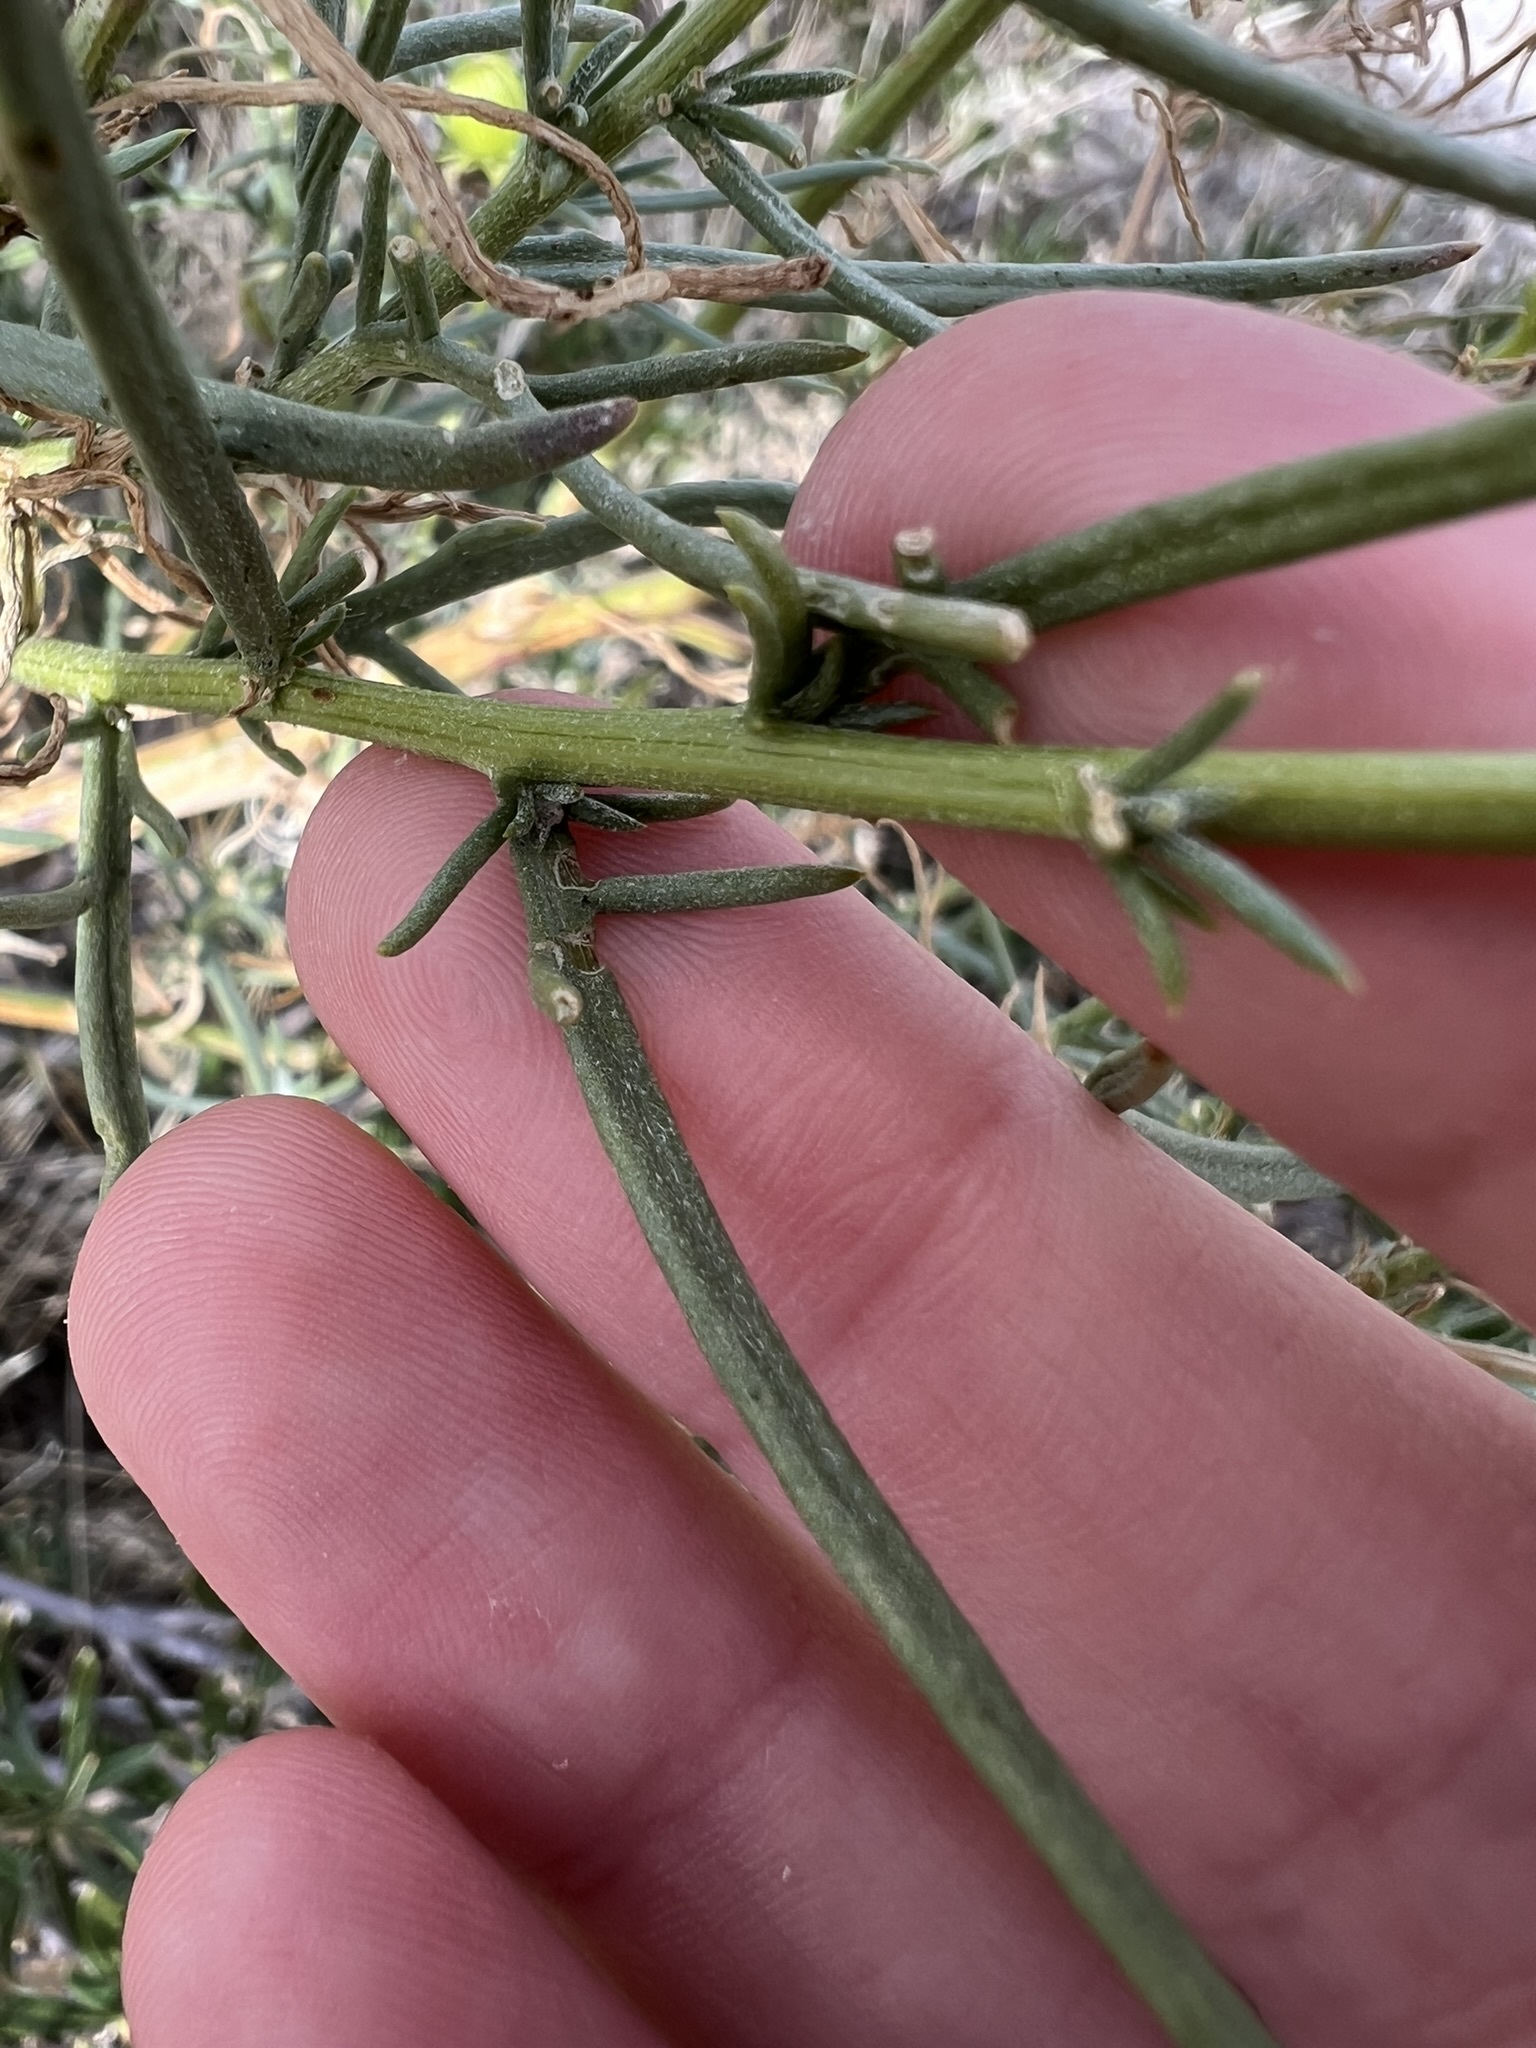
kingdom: Plantae
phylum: Tracheophyta
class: Magnoliopsida
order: Asterales
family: Asteraceae
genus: Senecio
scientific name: Senecio flaccidus
